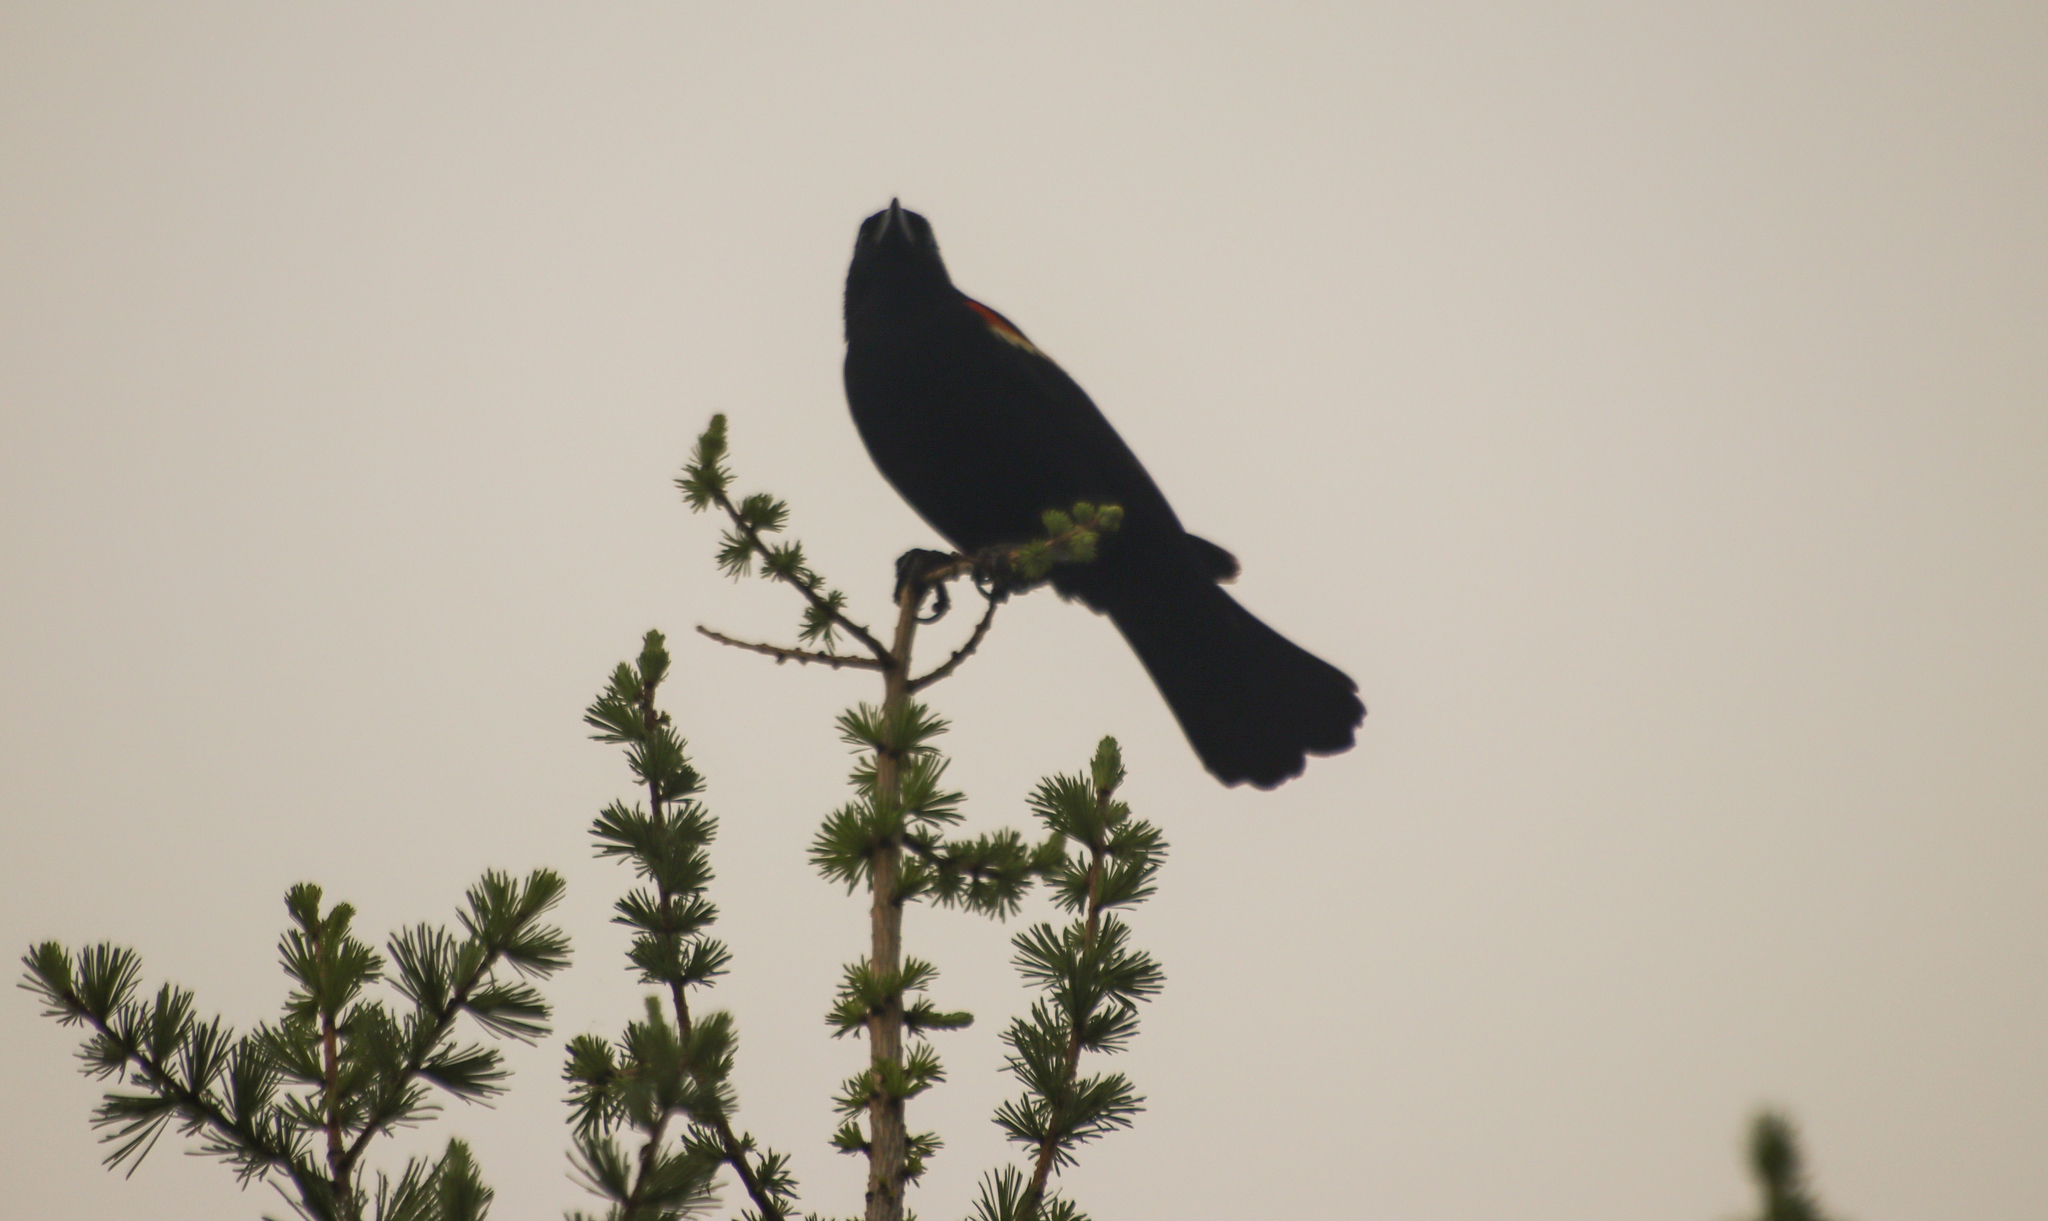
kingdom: Animalia
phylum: Chordata
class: Aves
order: Passeriformes
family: Icteridae
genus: Agelaius
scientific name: Agelaius phoeniceus
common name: Red-winged blackbird
